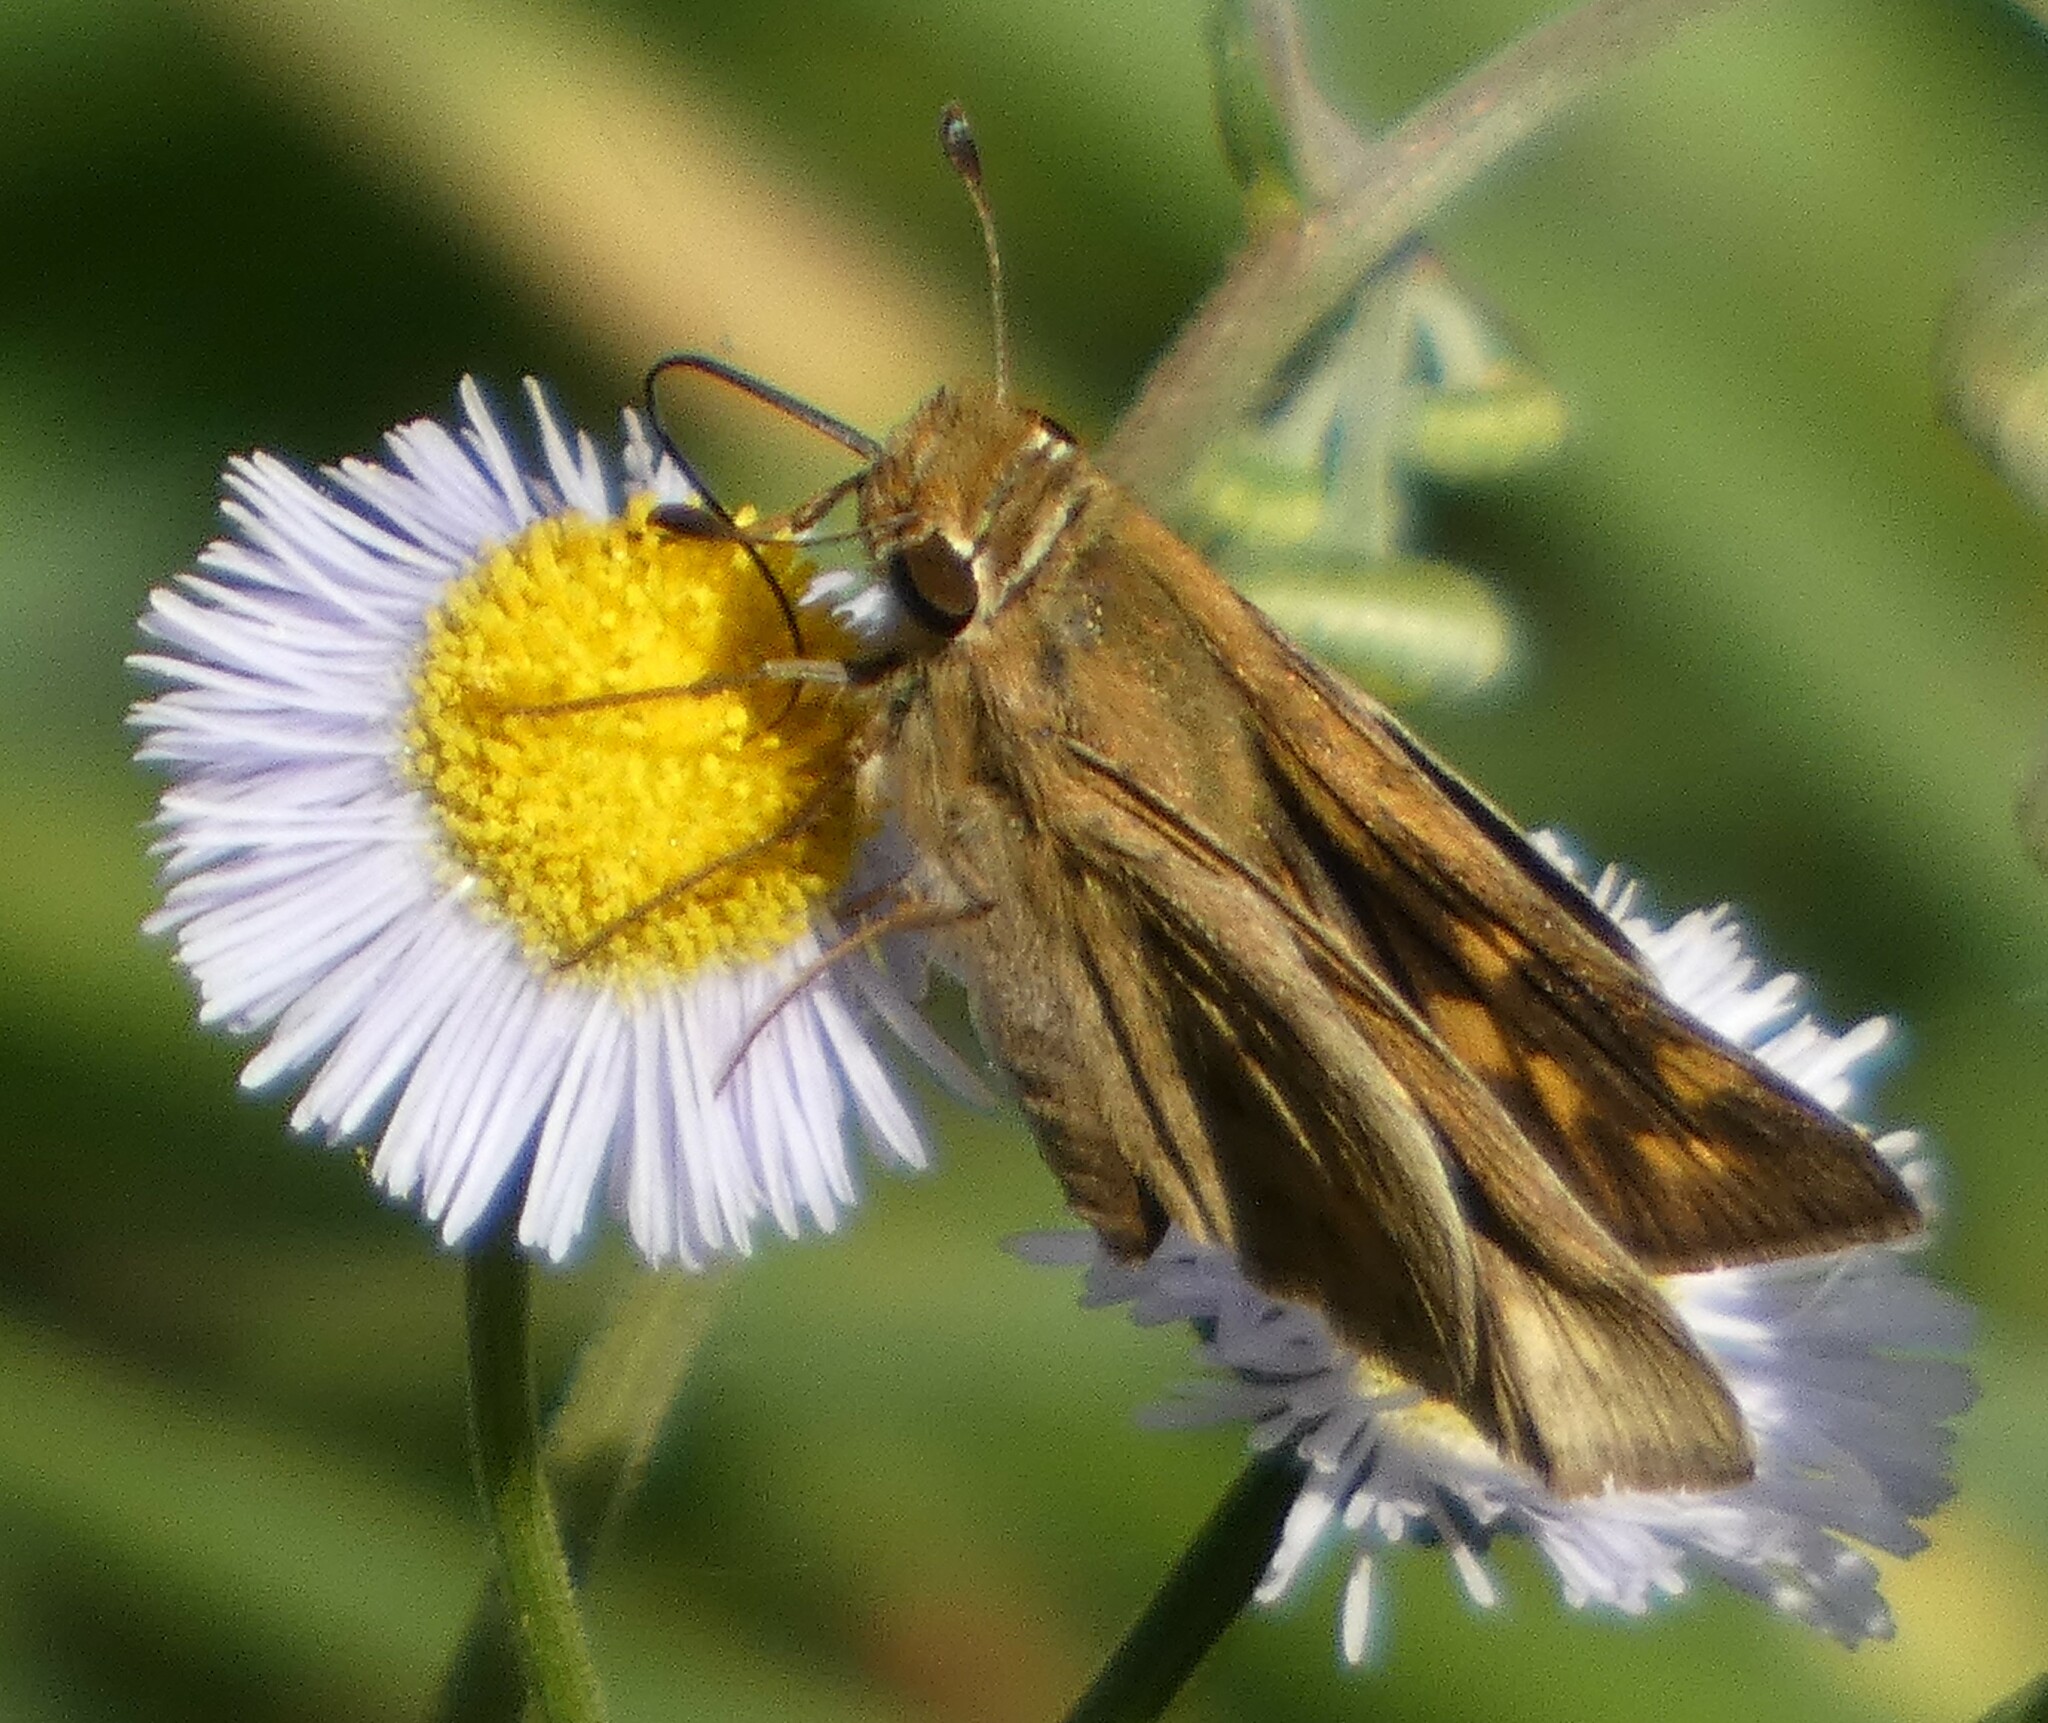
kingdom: Animalia
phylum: Arthropoda
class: Insecta
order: Lepidoptera
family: Hesperiidae
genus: Hylephila
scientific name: Hylephila phyleus
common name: Fiery skipper
